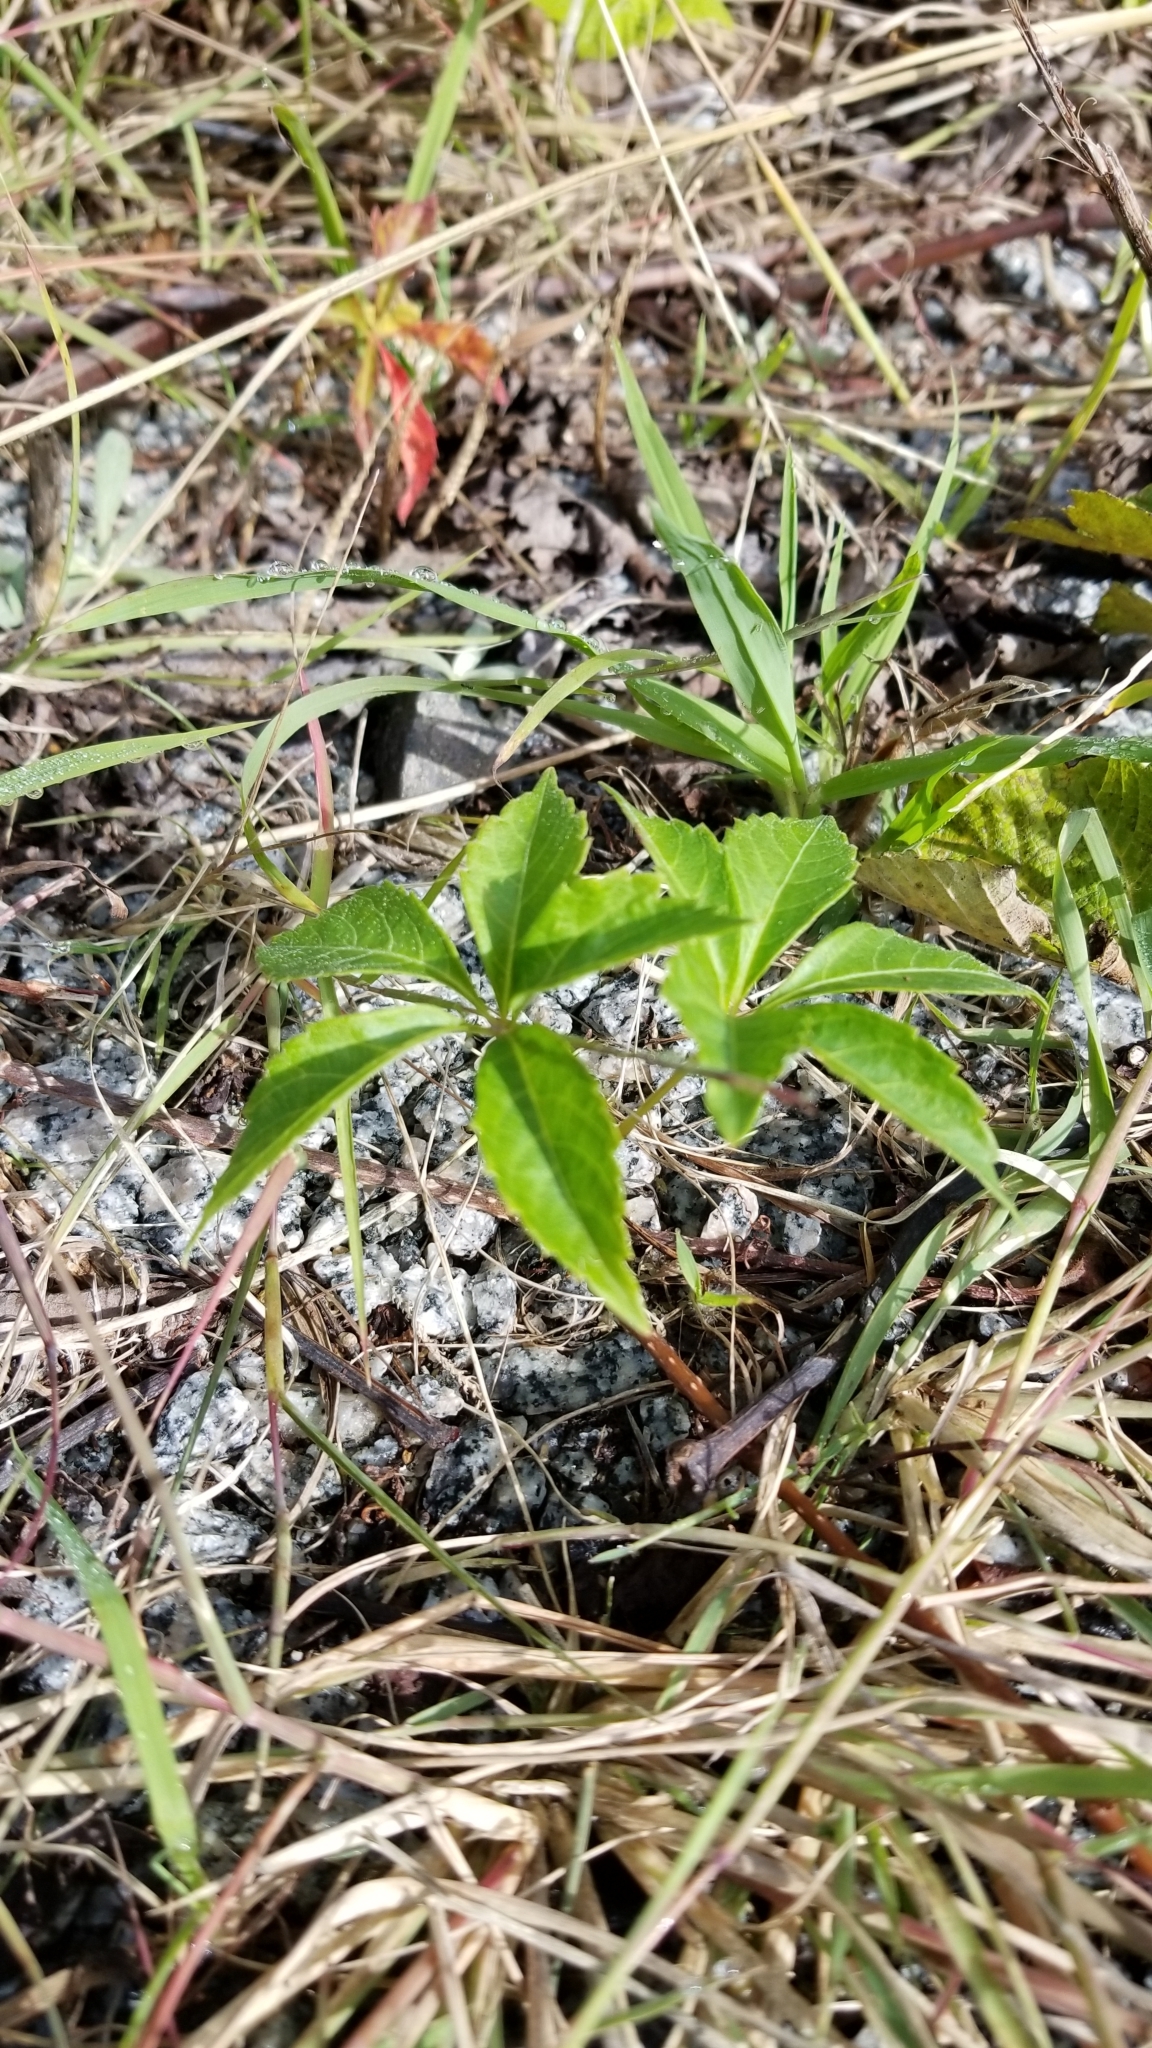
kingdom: Plantae
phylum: Tracheophyta
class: Magnoliopsida
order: Vitales
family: Vitaceae
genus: Parthenocissus
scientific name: Parthenocissus quinquefolia
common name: Virginia-creeper
